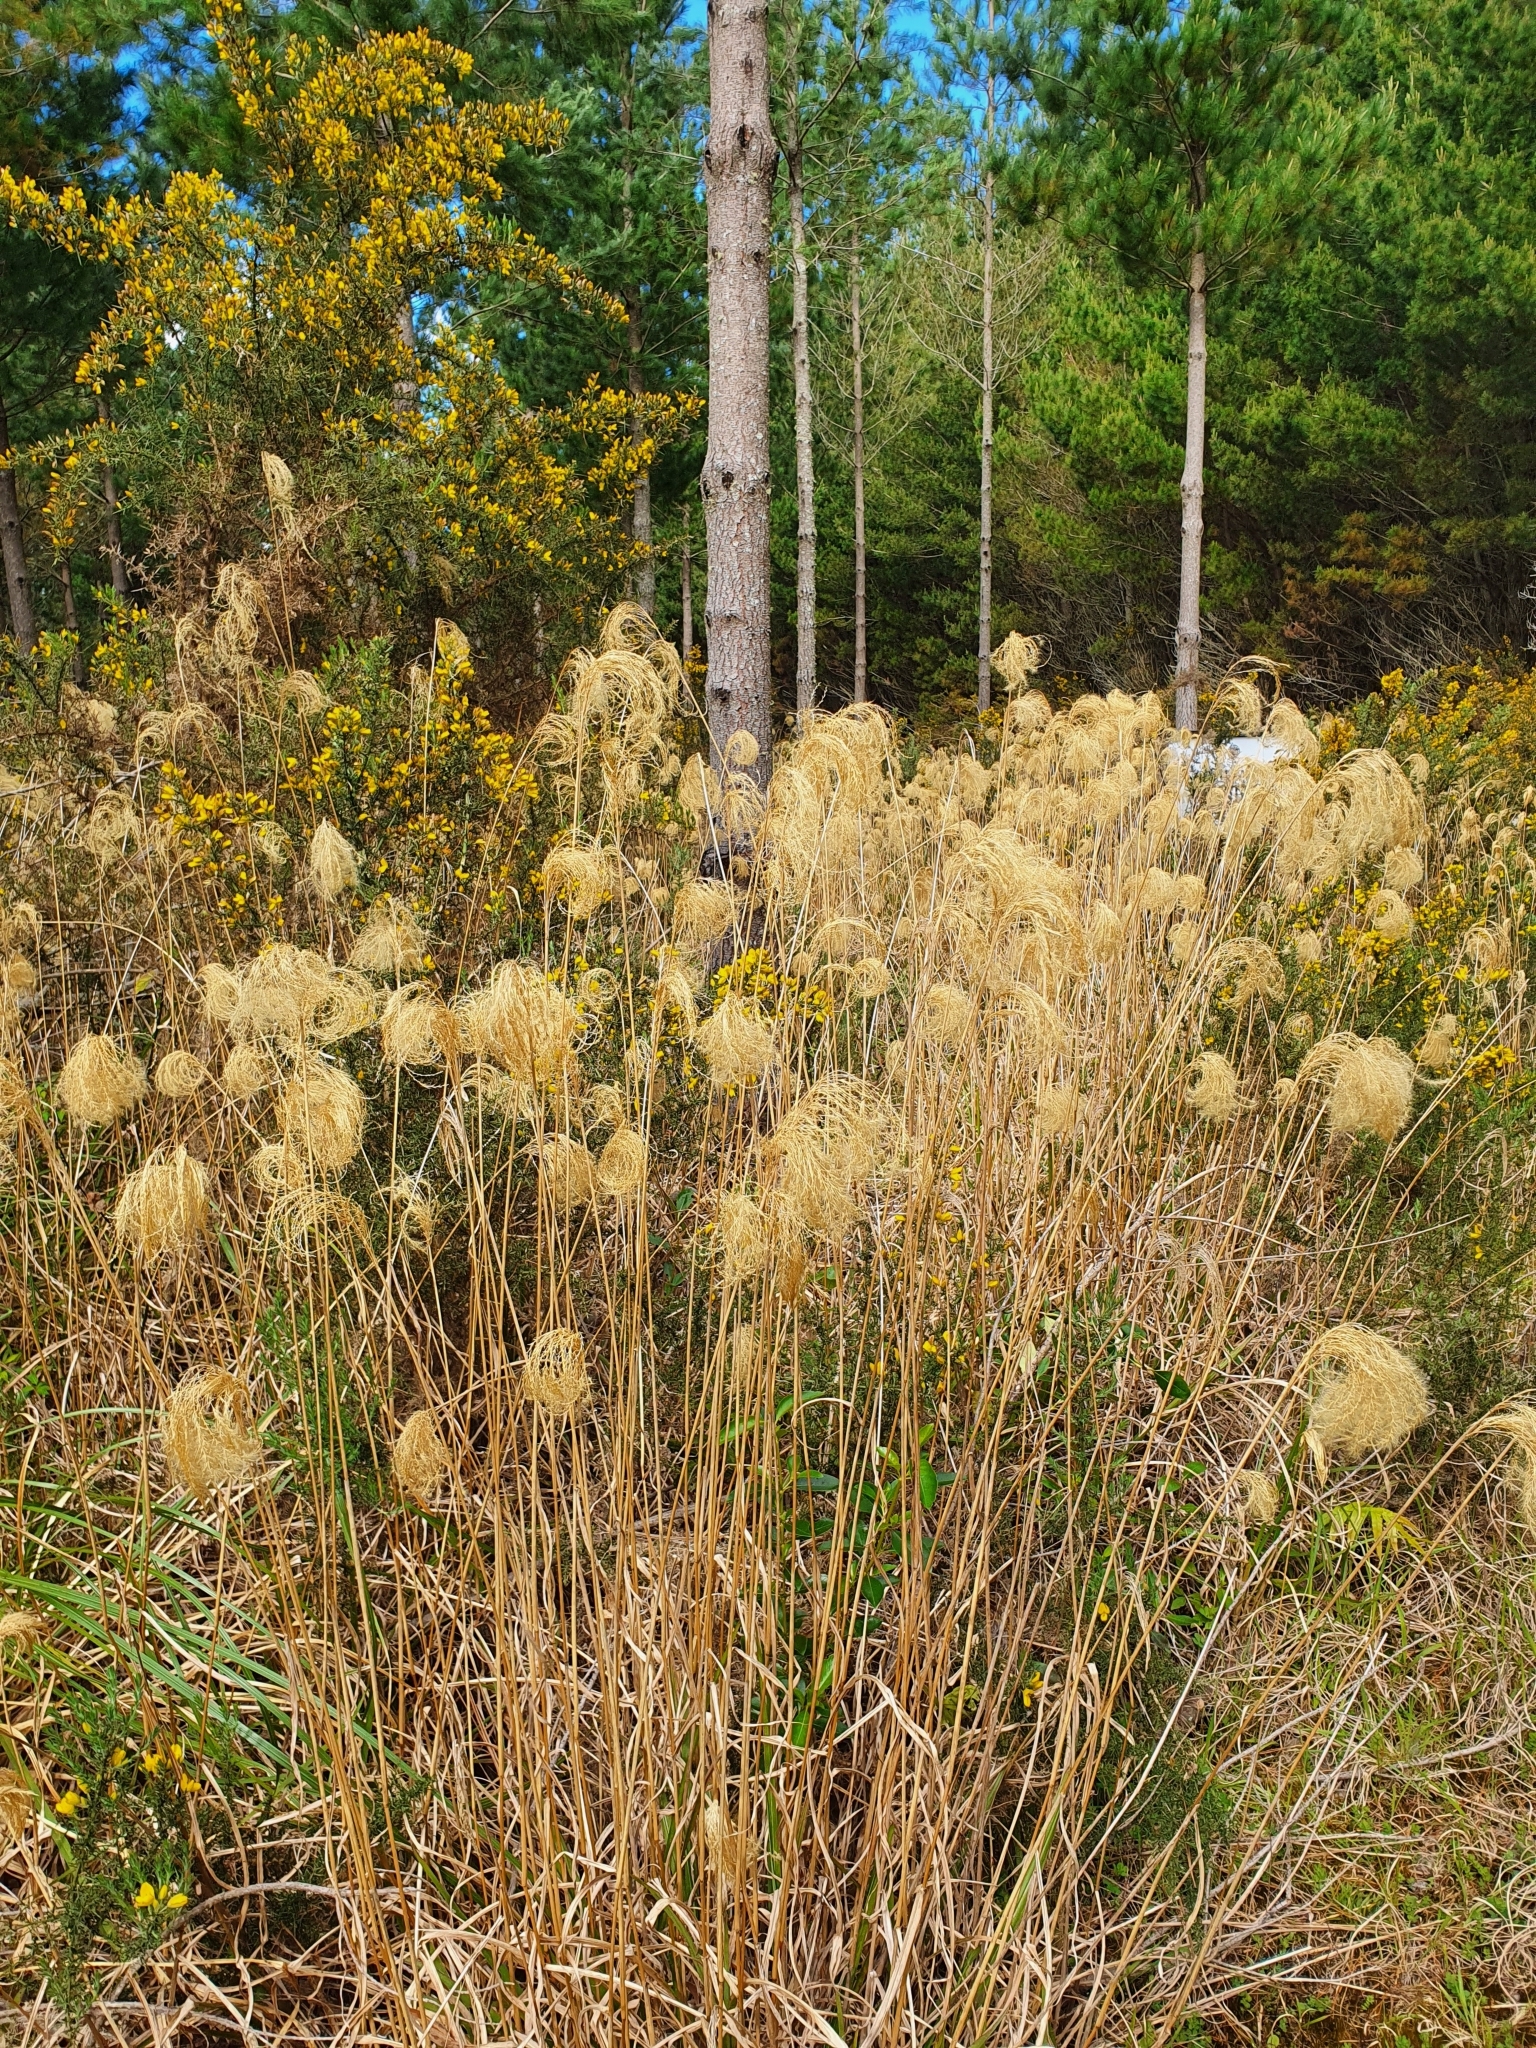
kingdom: Plantae
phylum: Tracheophyta
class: Liliopsida
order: Poales
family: Poaceae
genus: Miscanthus
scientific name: Miscanthus nepalensis
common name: Nepal silver grass
